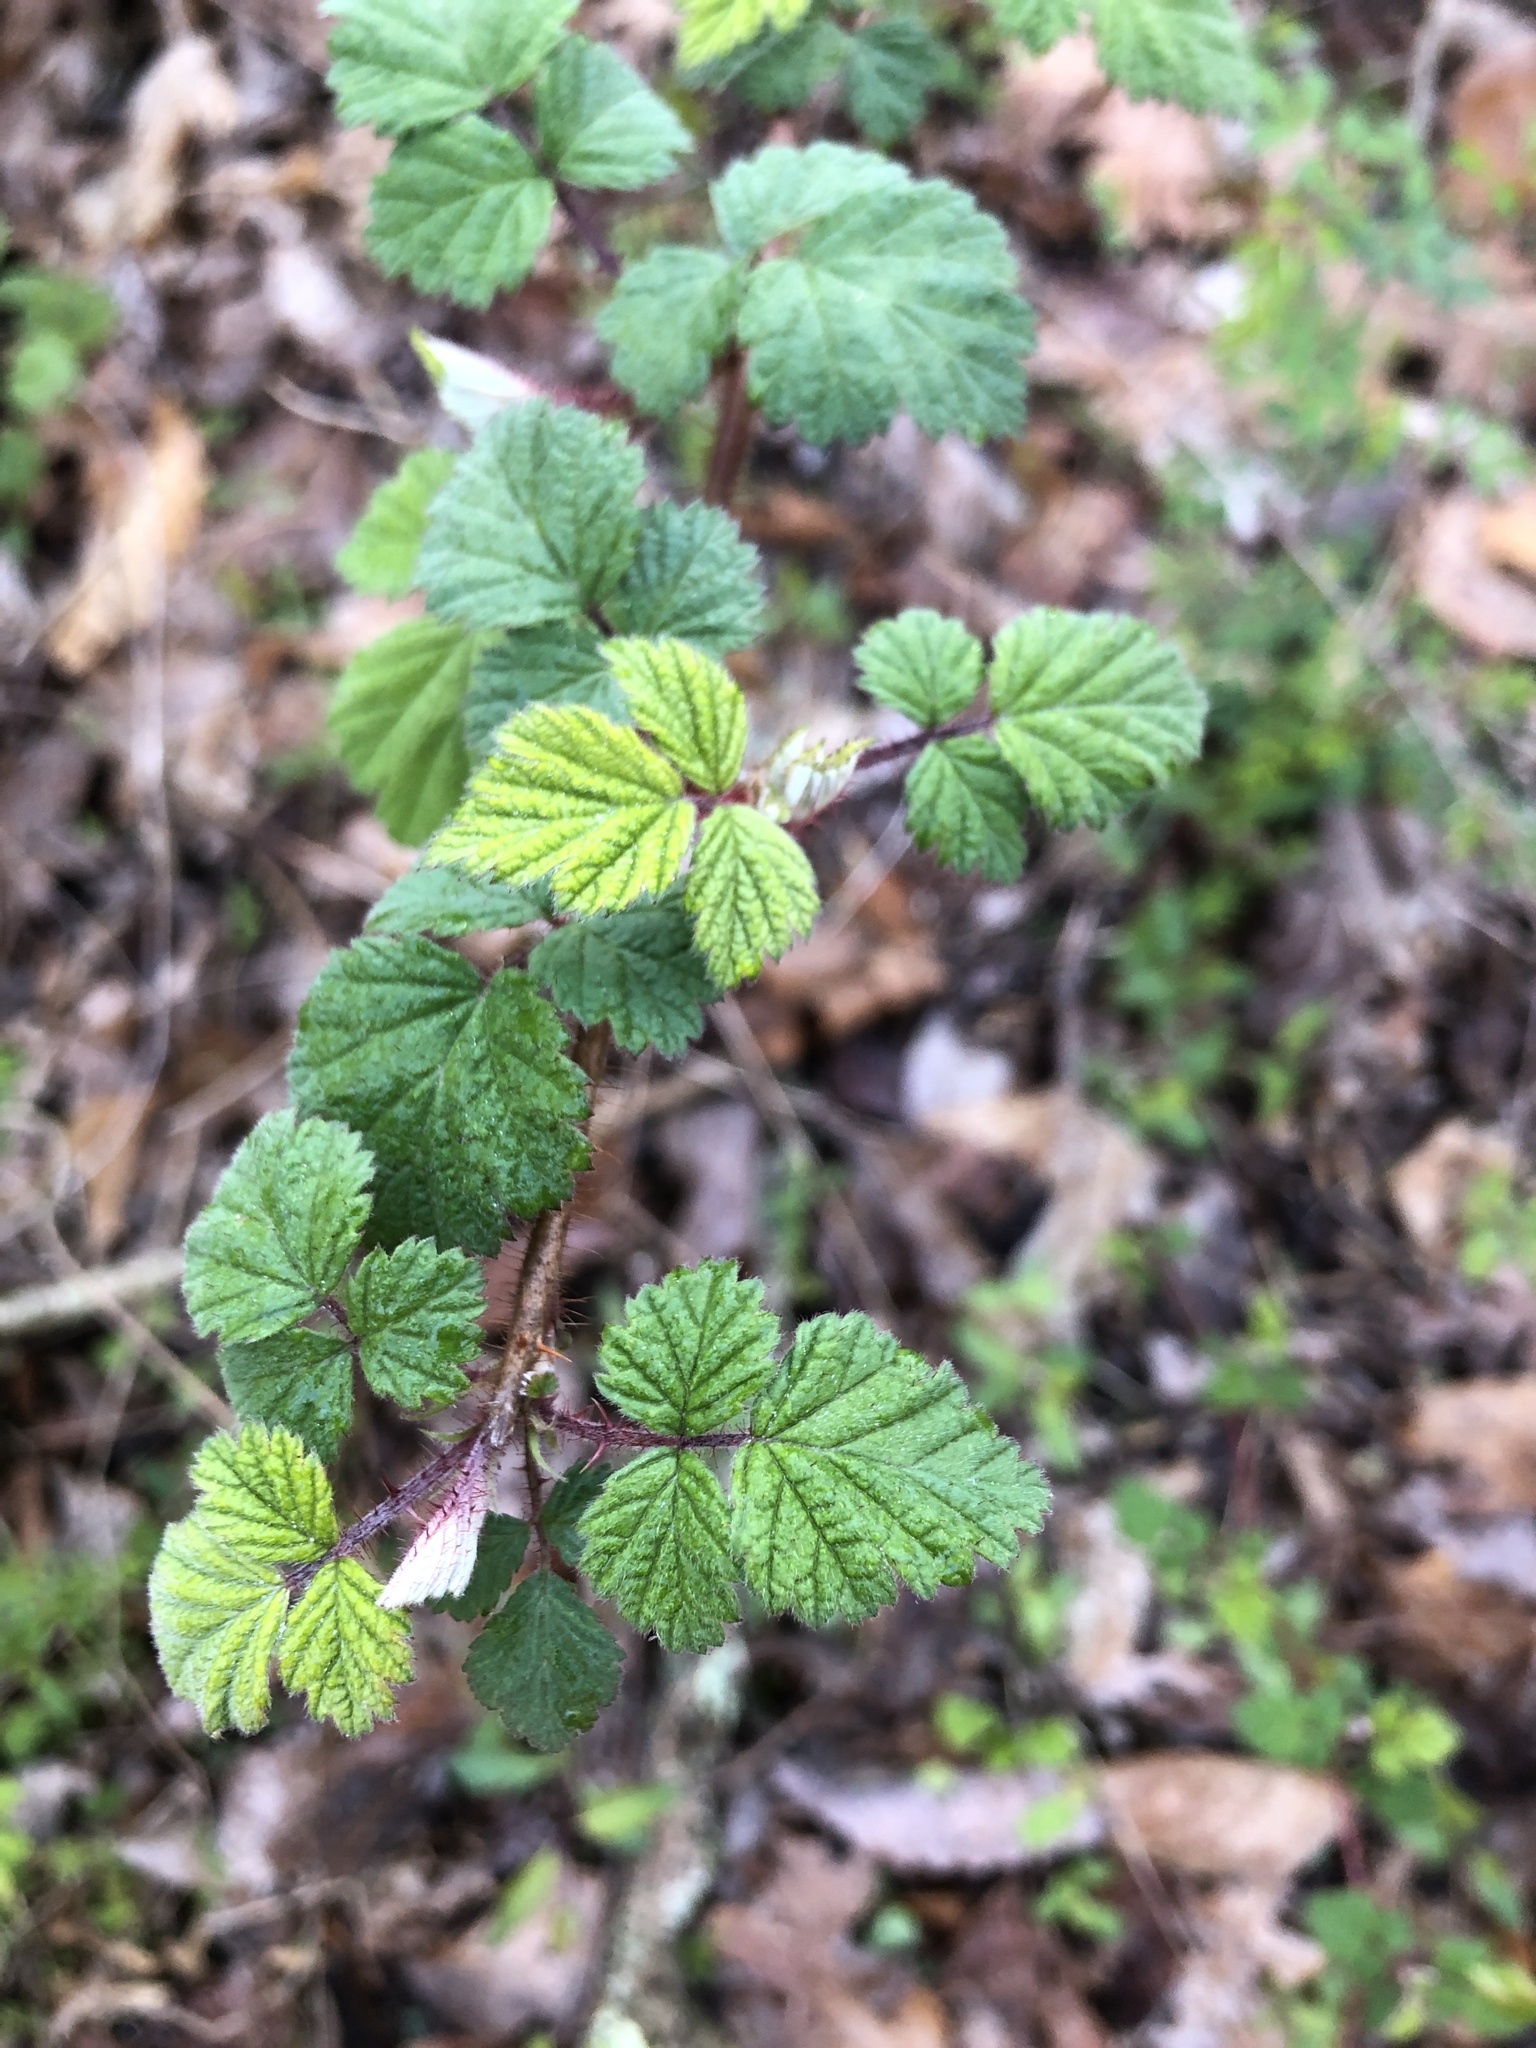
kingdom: Plantae
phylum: Tracheophyta
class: Magnoliopsida
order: Rosales
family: Rosaceae
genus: Rubus
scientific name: Rubus phoenicolasius
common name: Japanese wineberry
